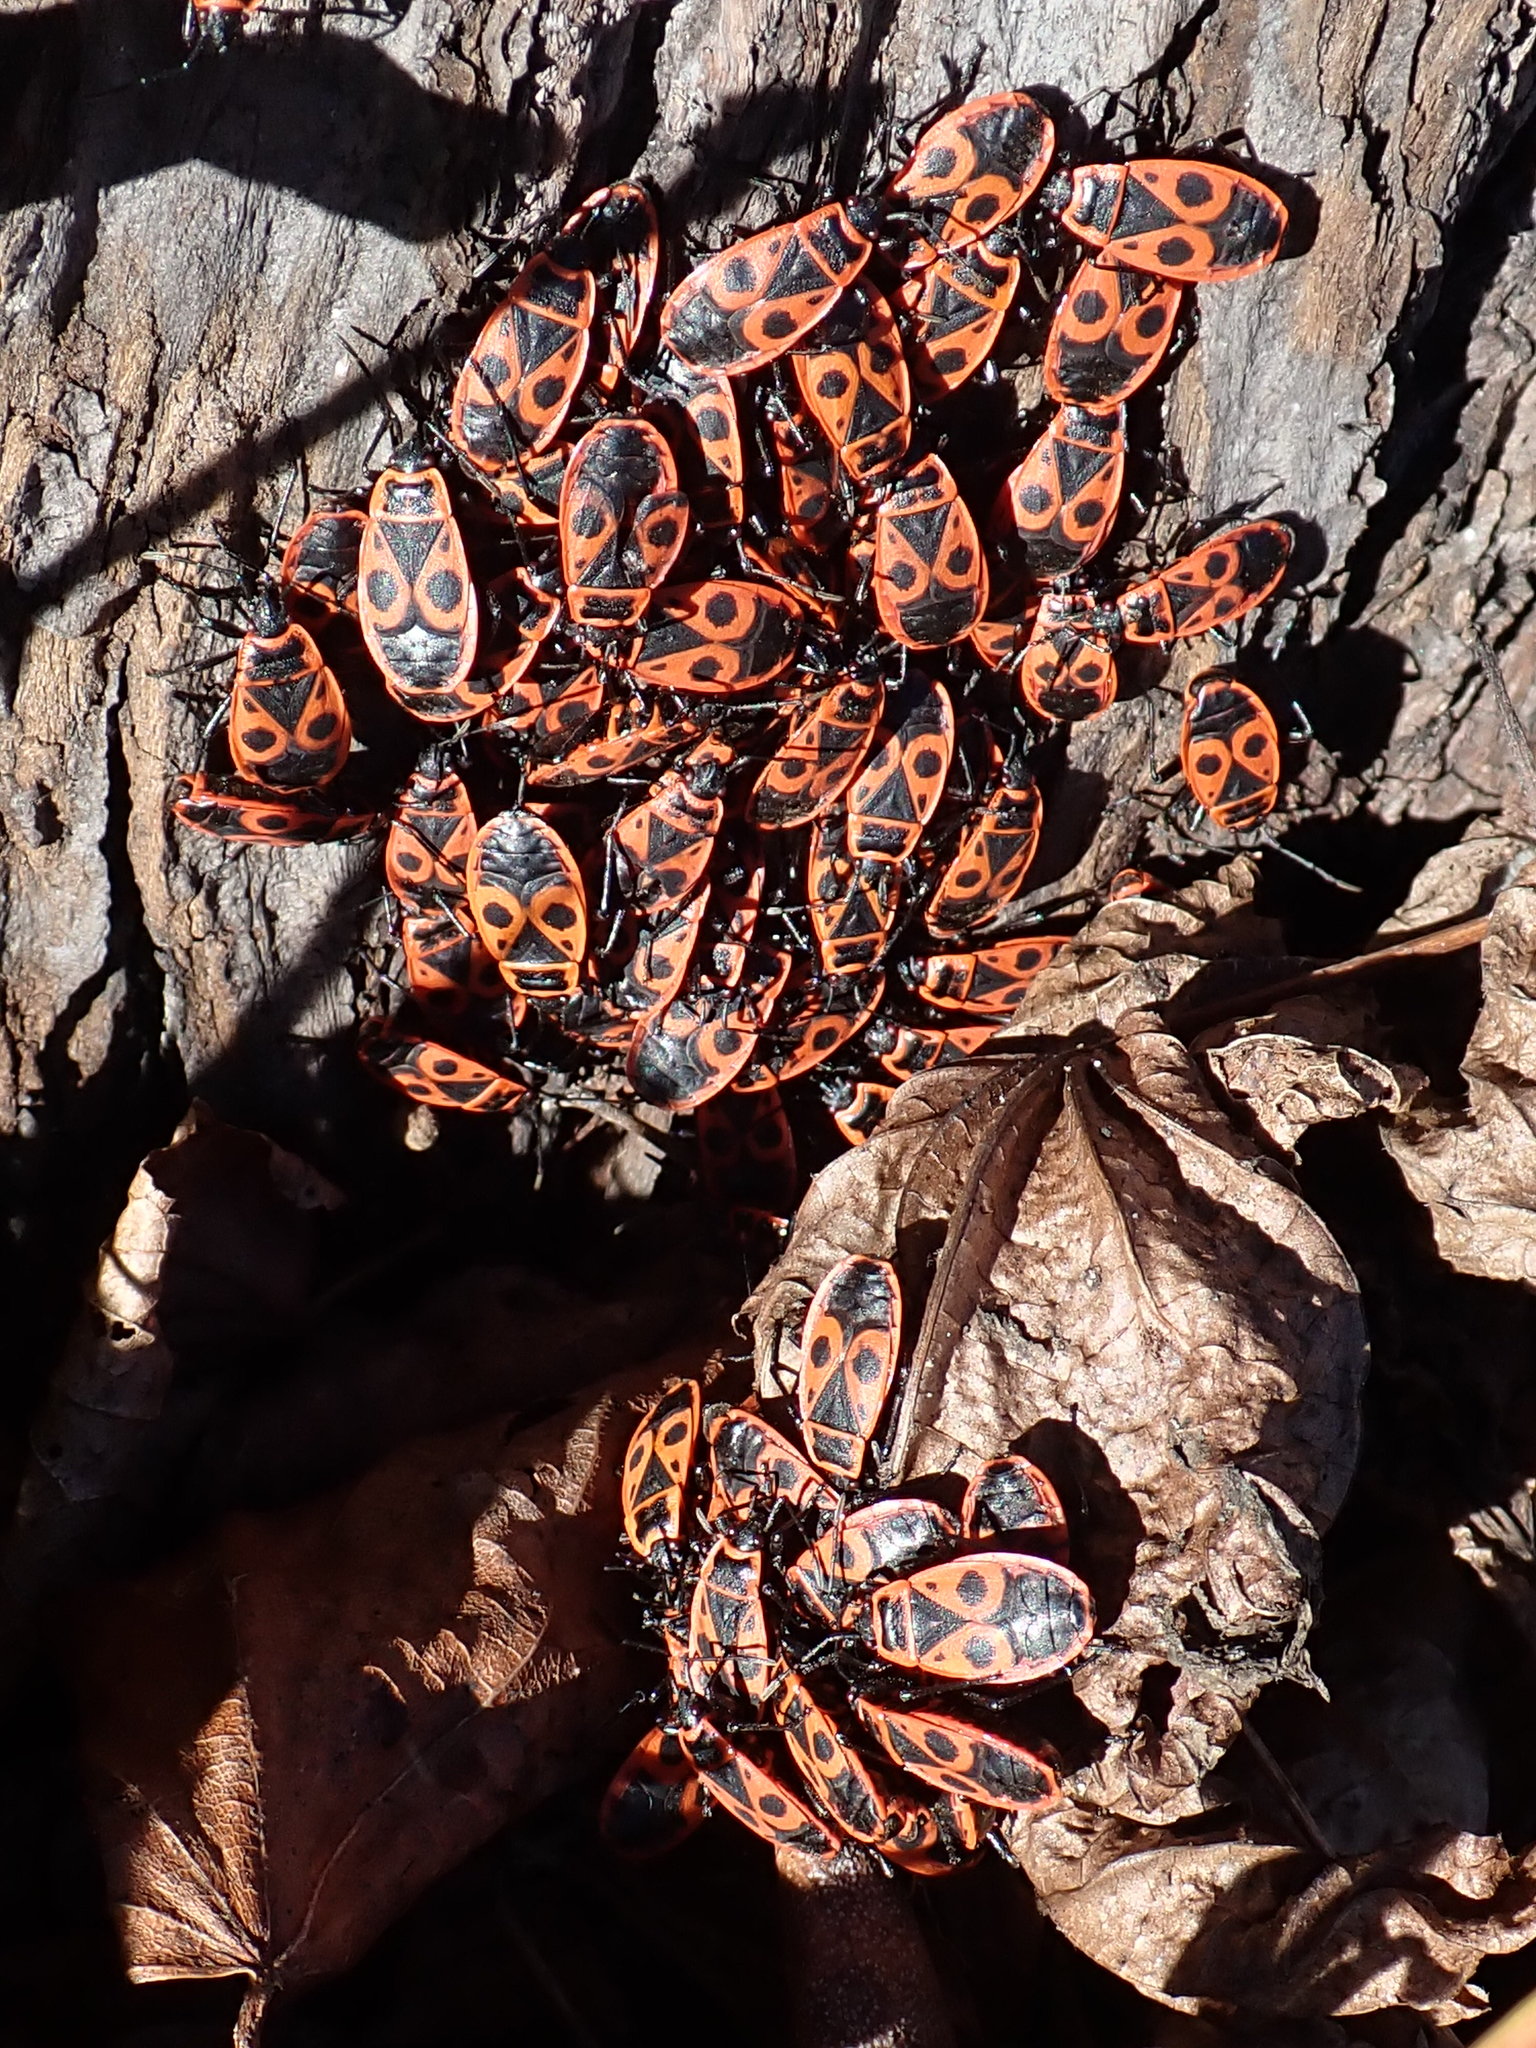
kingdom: Animalia
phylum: Arthropoda
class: Insecta
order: Hemiptera
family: Pyrrhocoridae
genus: Pyrrhocoris
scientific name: Pyrrhocoris apterus
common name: Firebug
